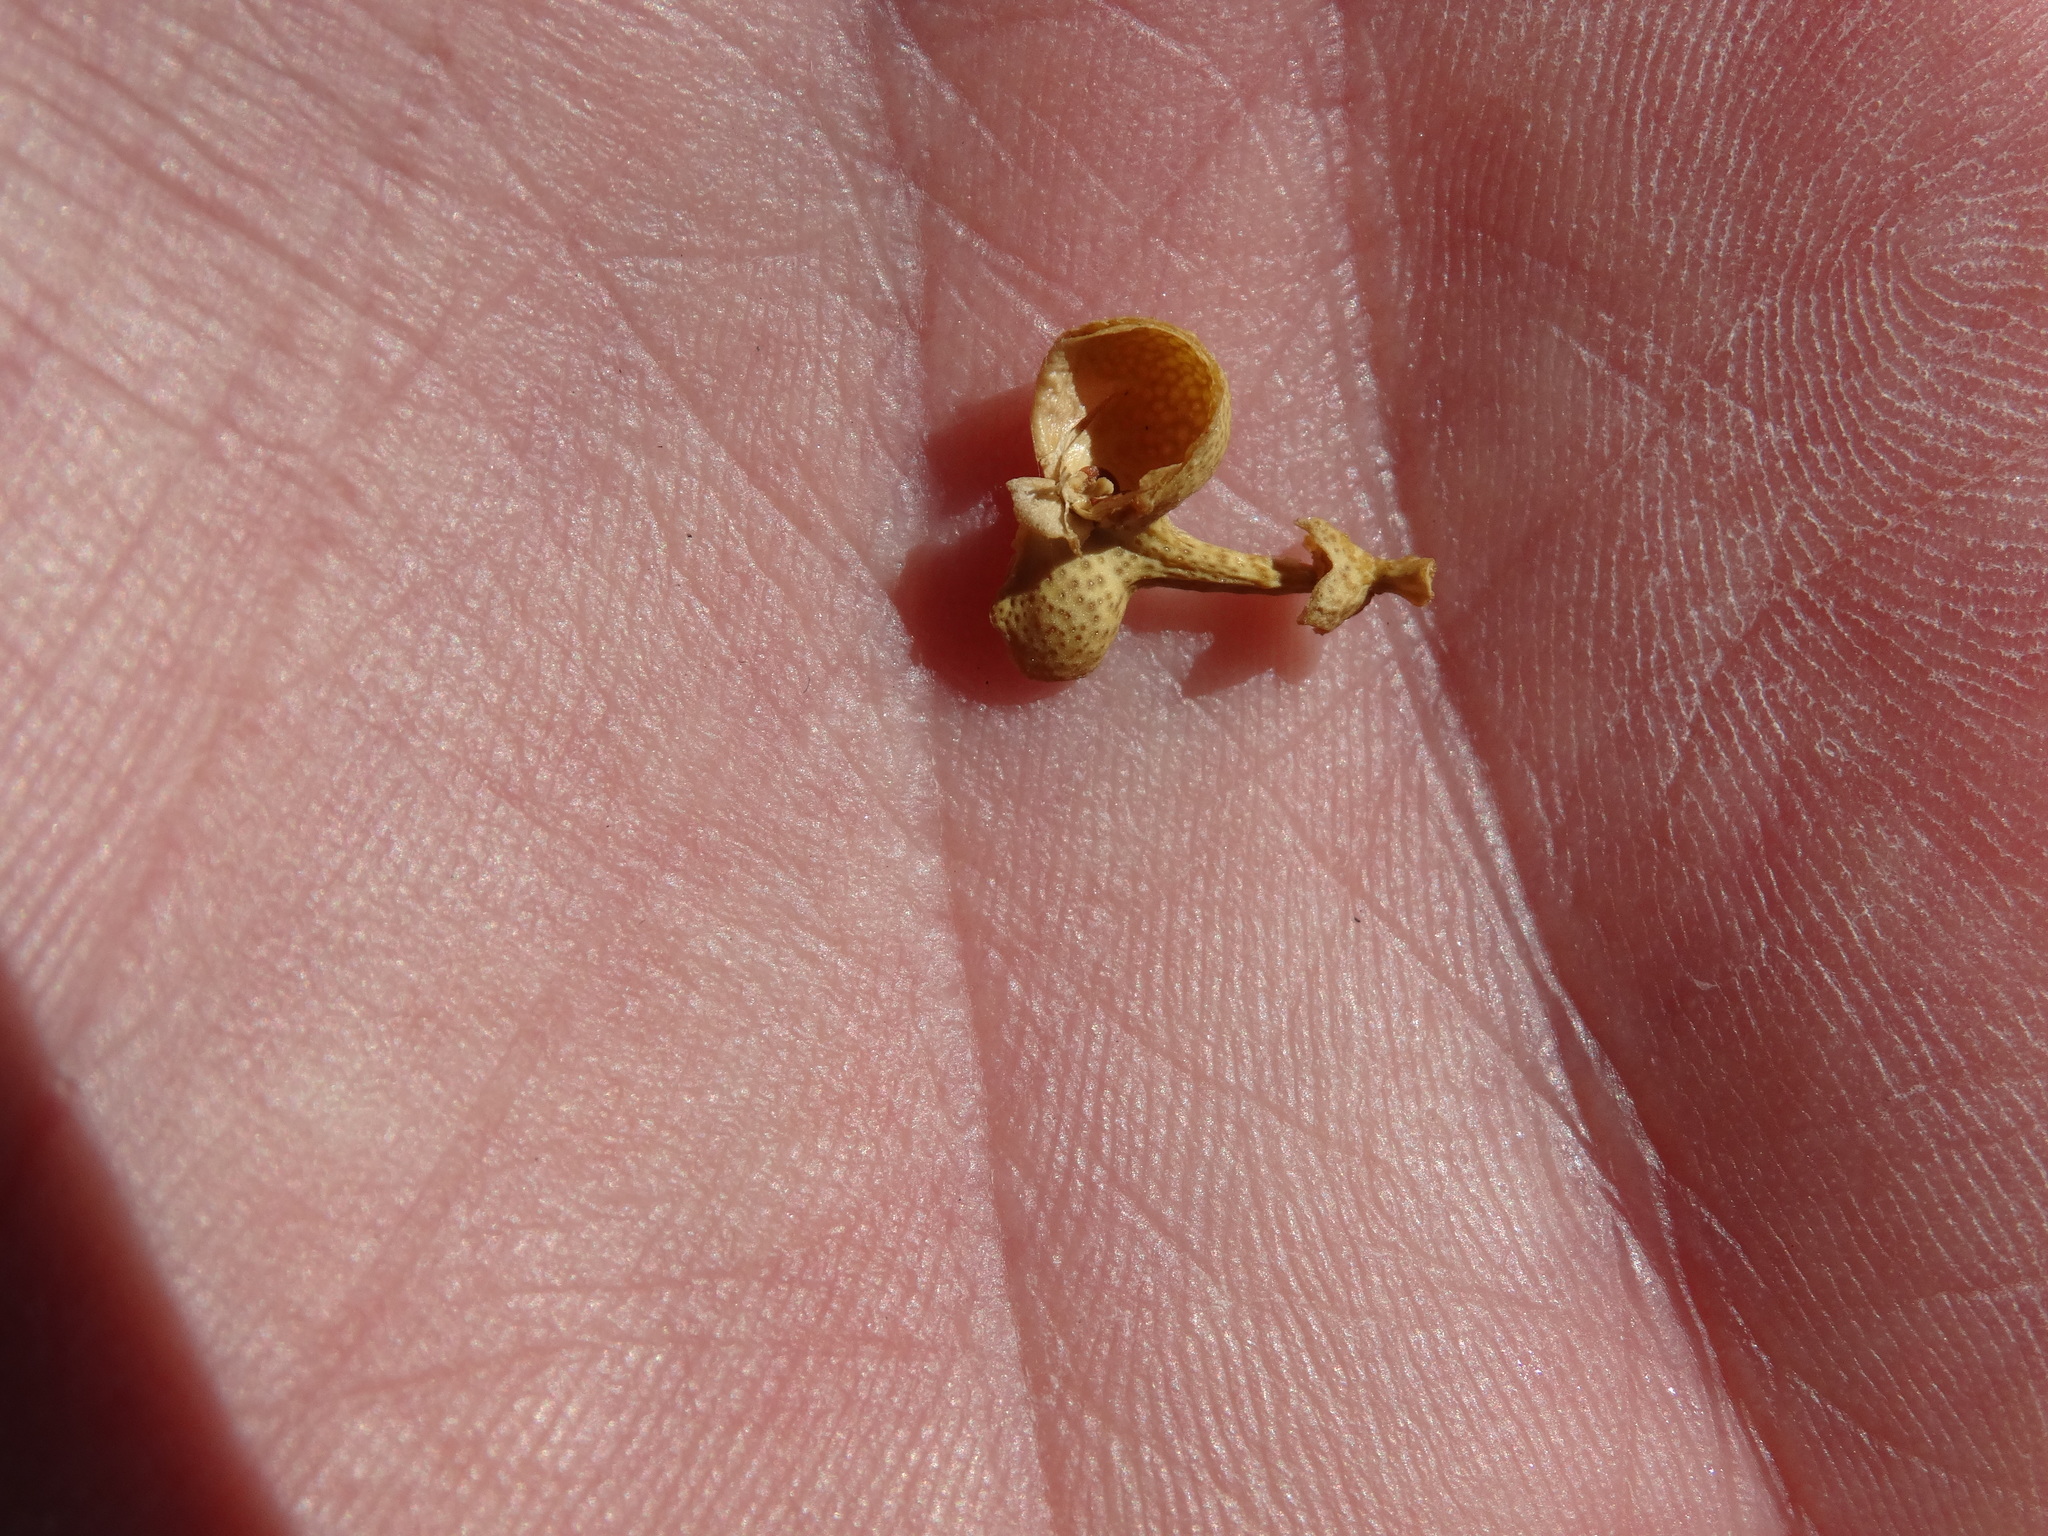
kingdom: Plantae
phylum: Tracheophyta
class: Magnoliopsida
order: Sapindales
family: Rutaceae
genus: Thamnosma
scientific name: Thamnosma montana
